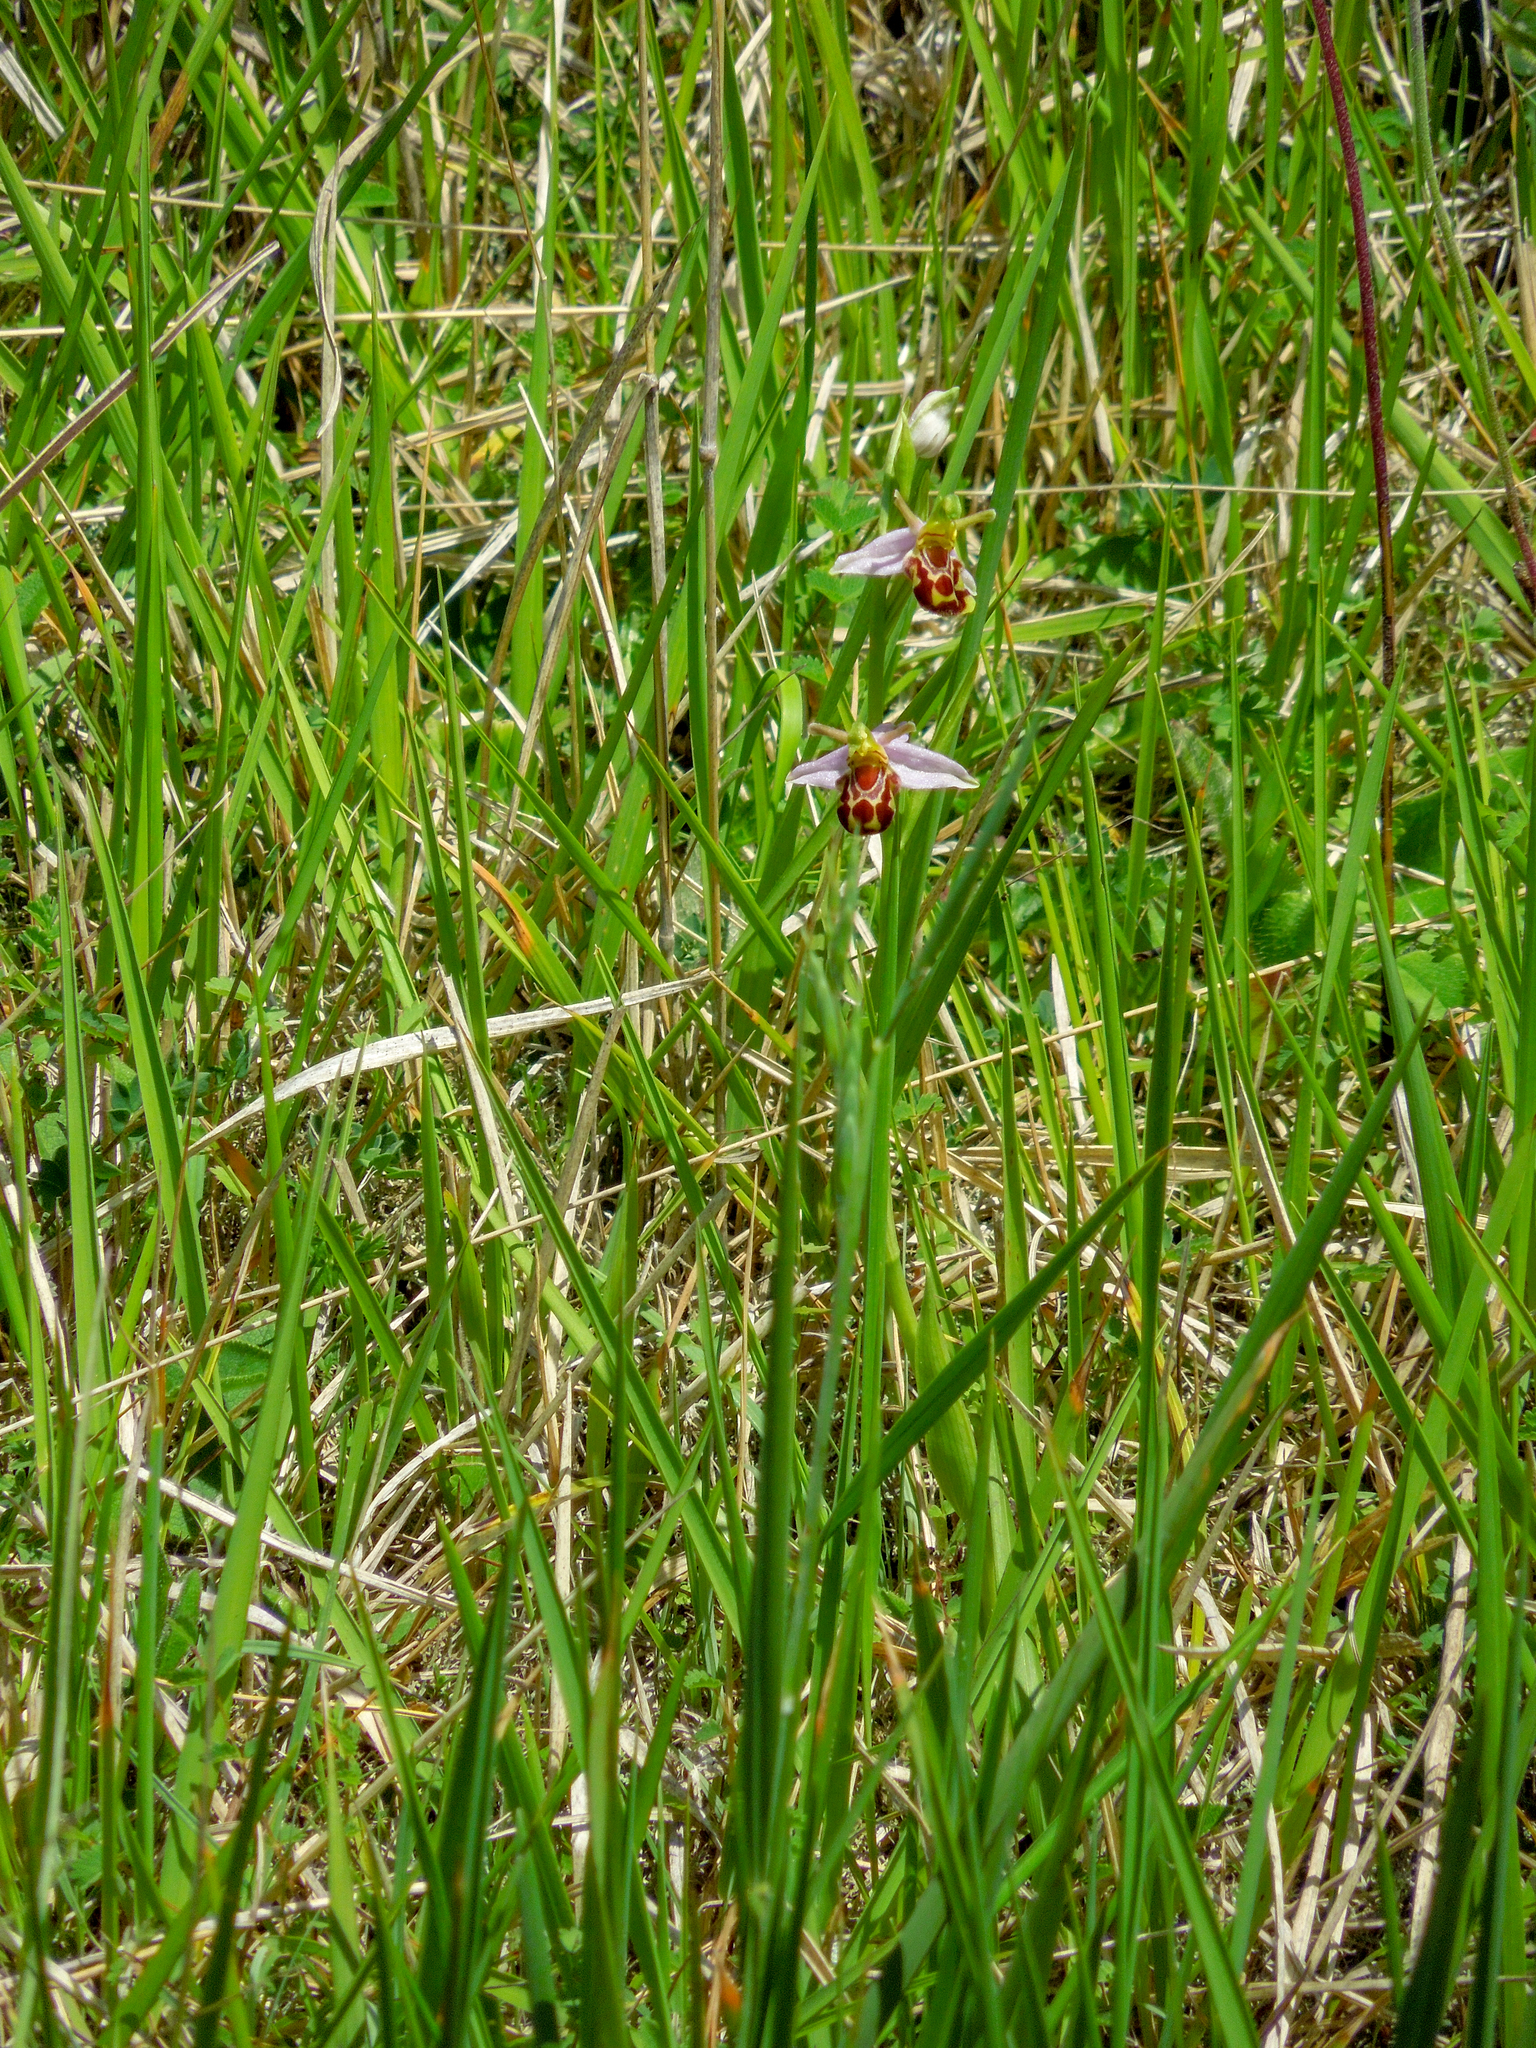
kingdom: Plantae
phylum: Tracheophyta
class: Liliopsida
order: Asparagales
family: Orchidaceae
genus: Ophrys
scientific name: Ophrys apifera
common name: Bee orchid
